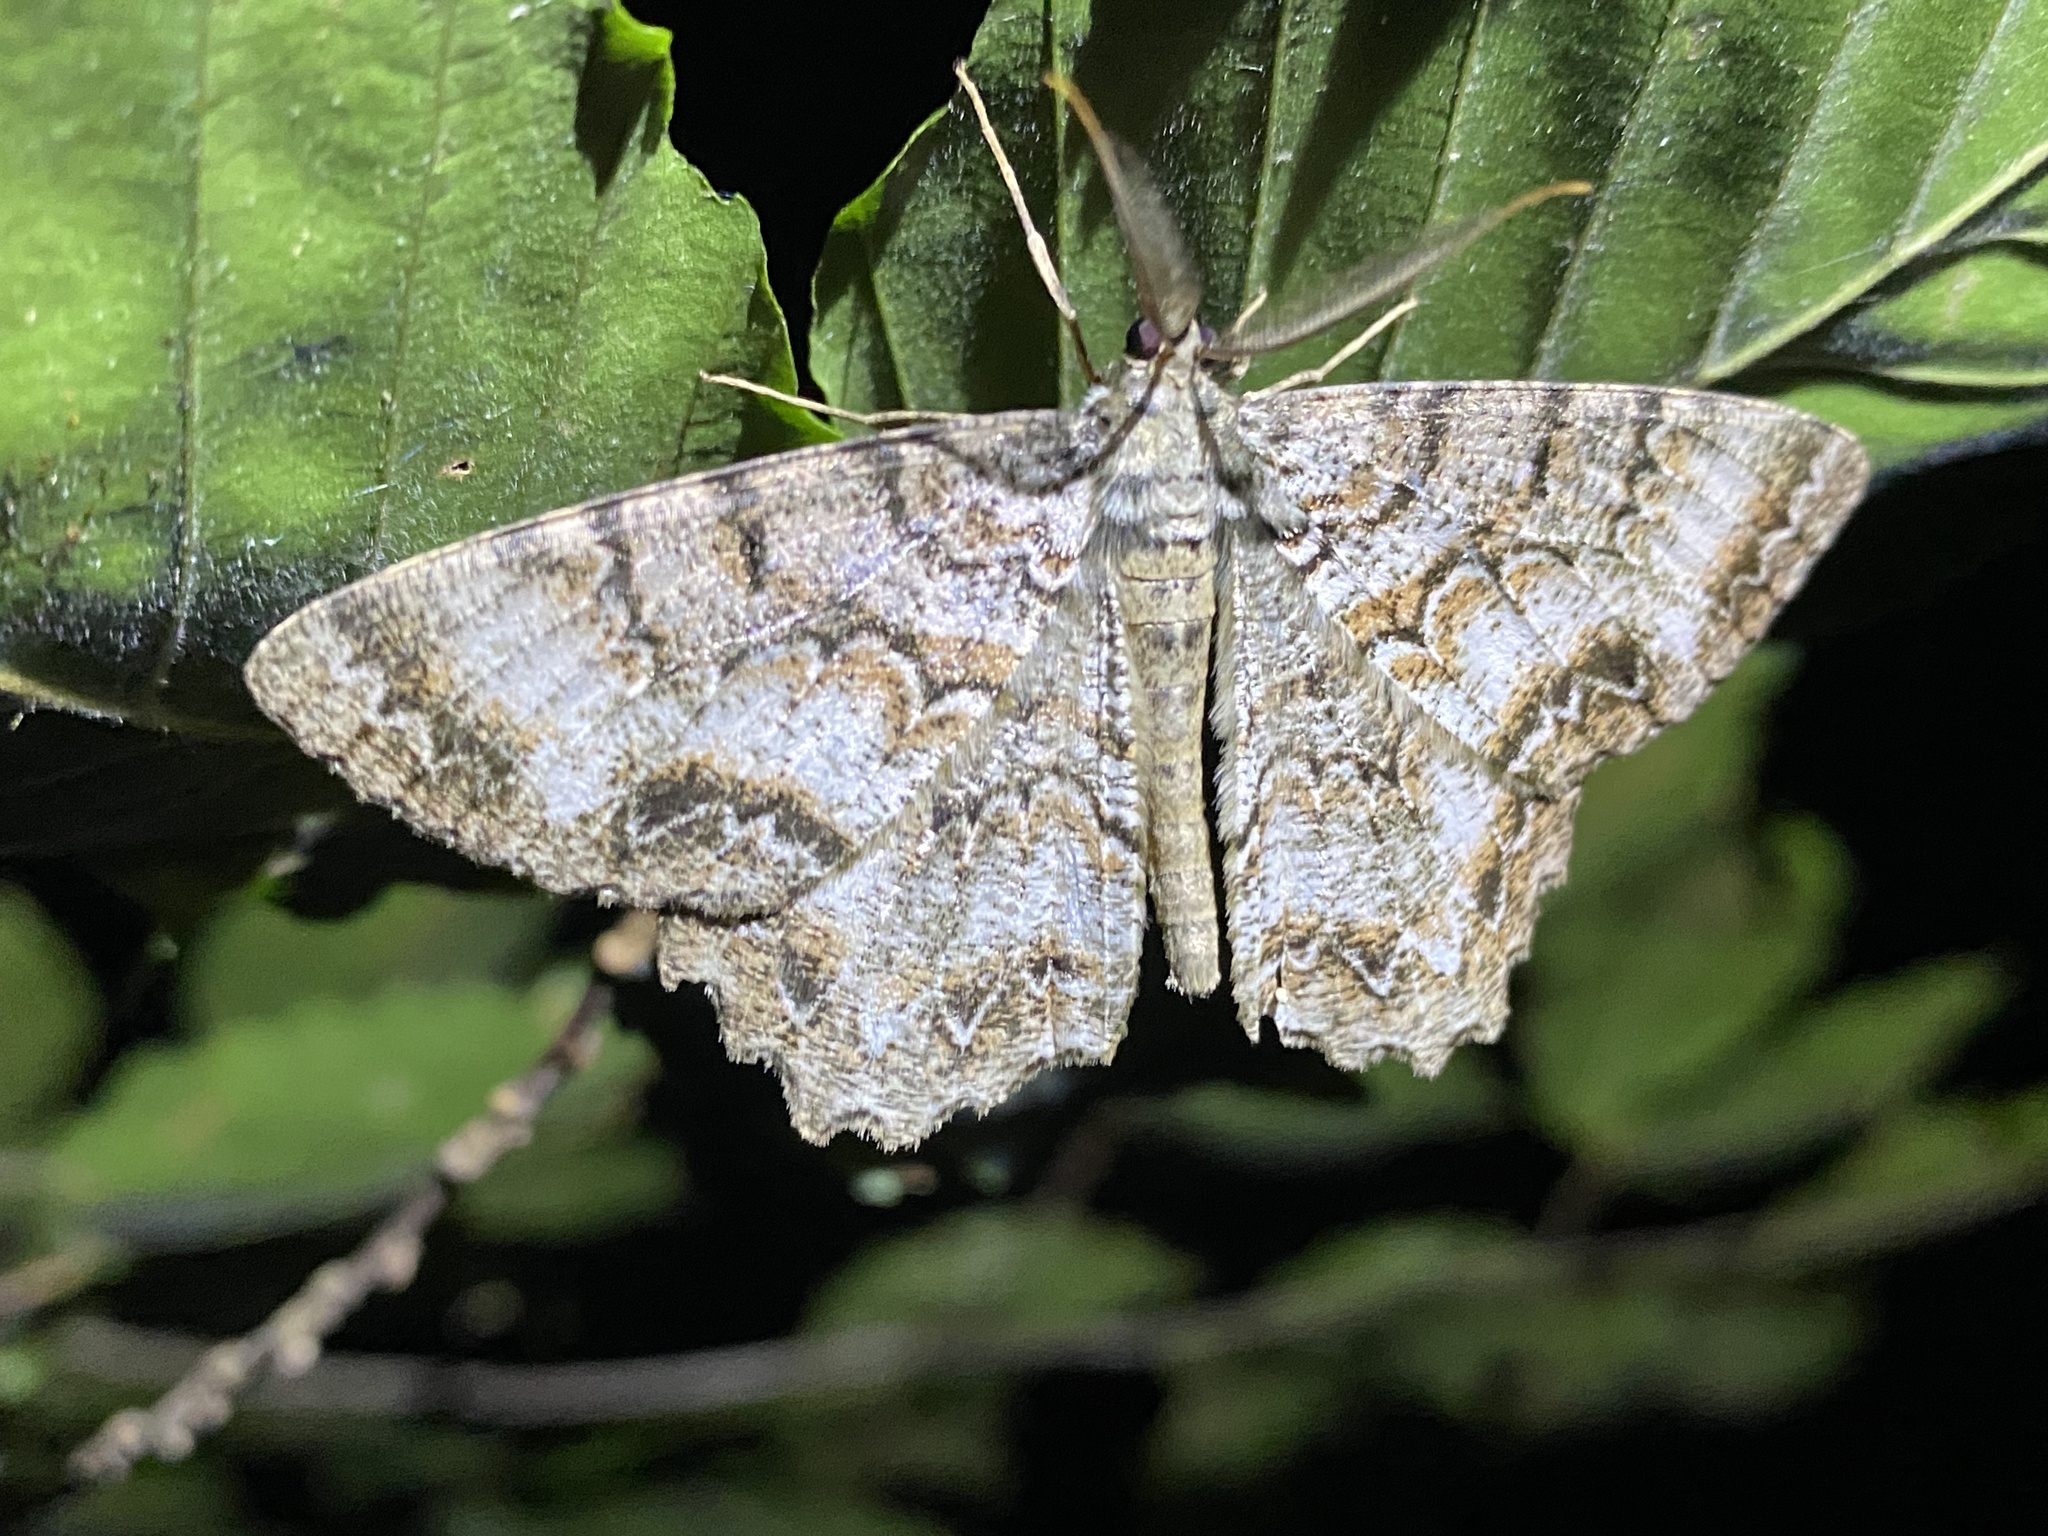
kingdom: Animalia
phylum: Arthropoda
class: Insecta
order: Lepidoptera
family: Geometridae
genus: Epimecis
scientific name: Epimecis hortaria
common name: Tulip-tree beauty
